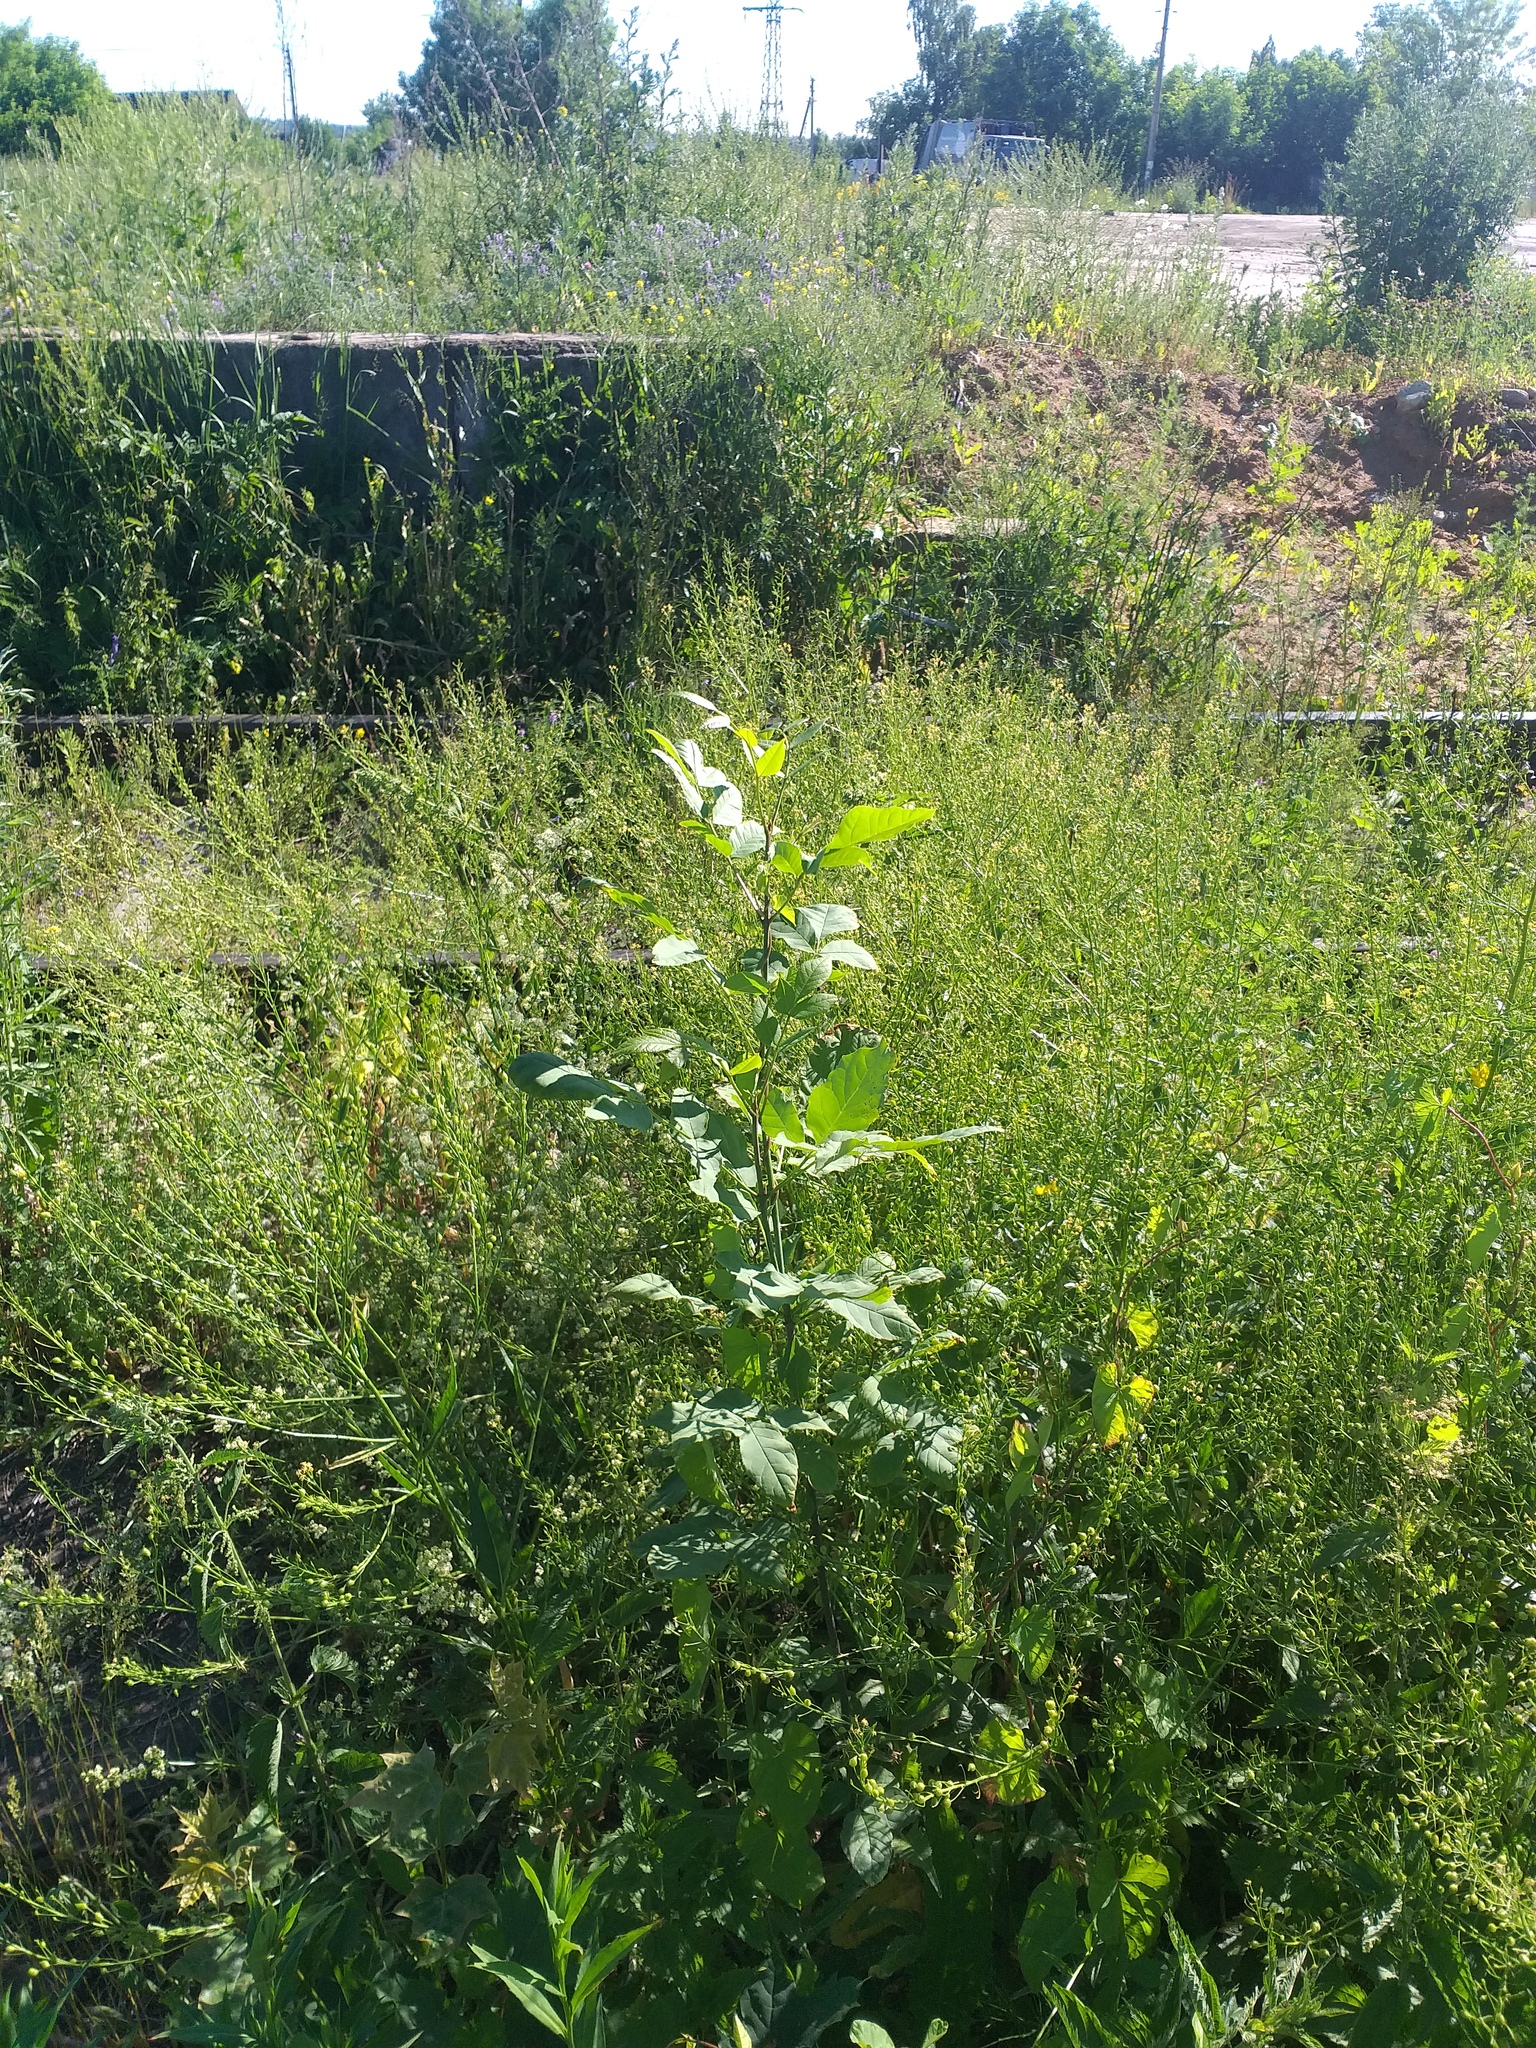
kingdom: Plantae
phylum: Tracheophyta
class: Magnoliopsida
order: Lamiales
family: Oleaceae
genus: Fraxinus
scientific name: Fraxinus pennsylvanica
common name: Green ash
